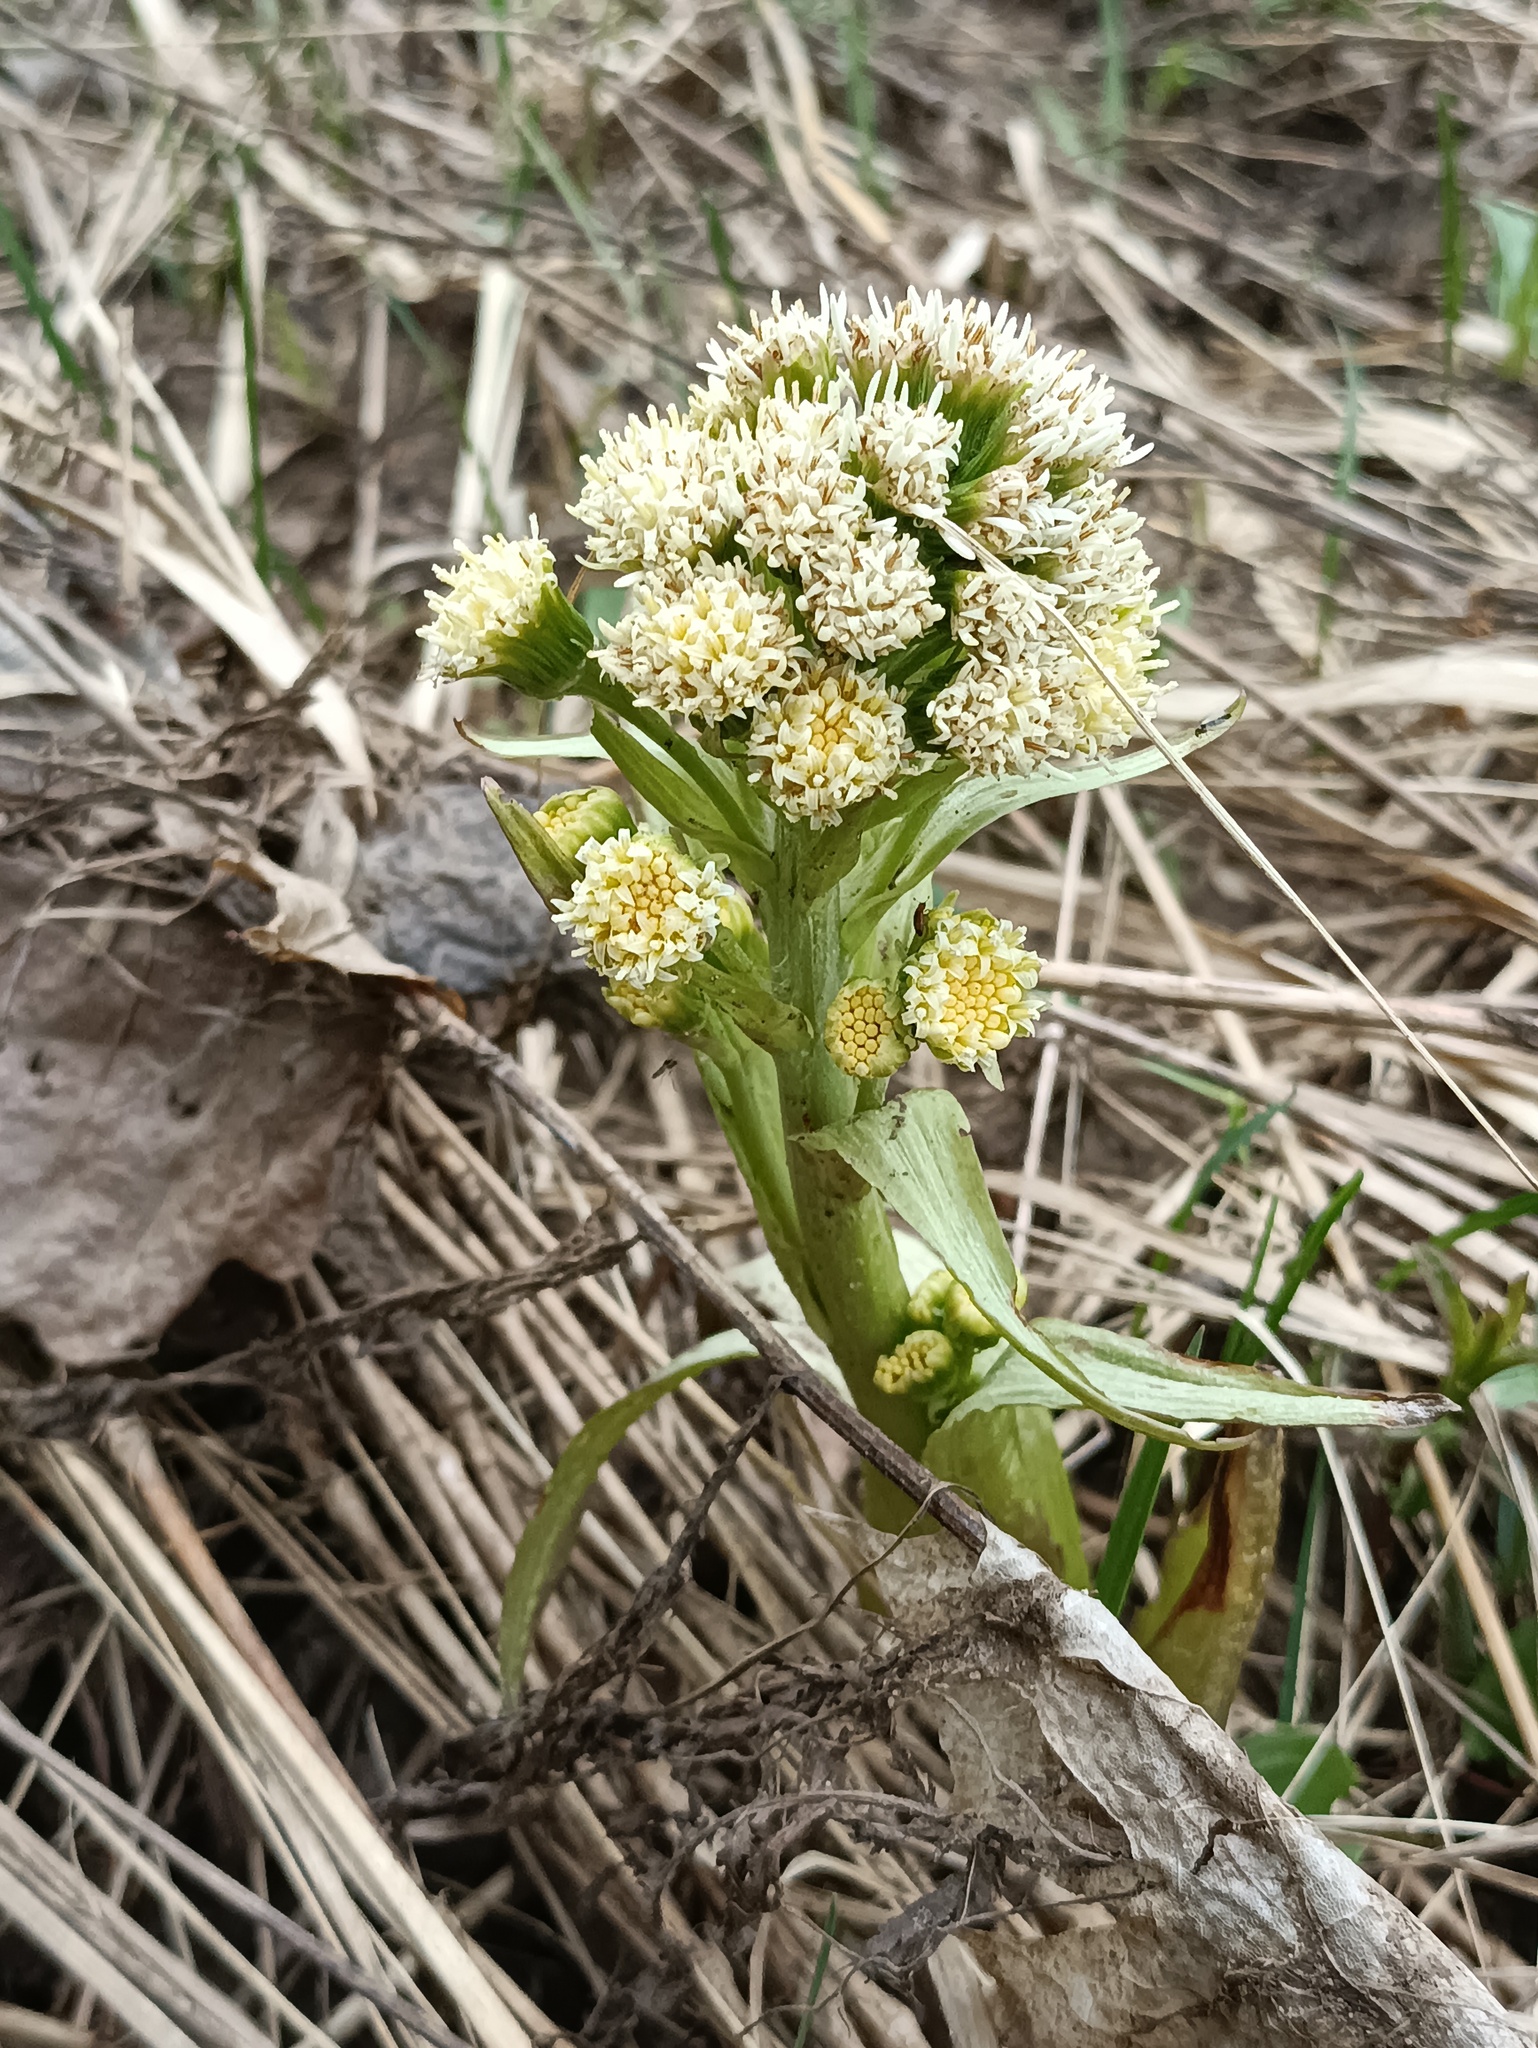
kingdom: Plantae
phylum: Tracheophyta
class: Magnoliopsida
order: Asterales
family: Asteraceae
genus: Petasites
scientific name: Petasites spurius
